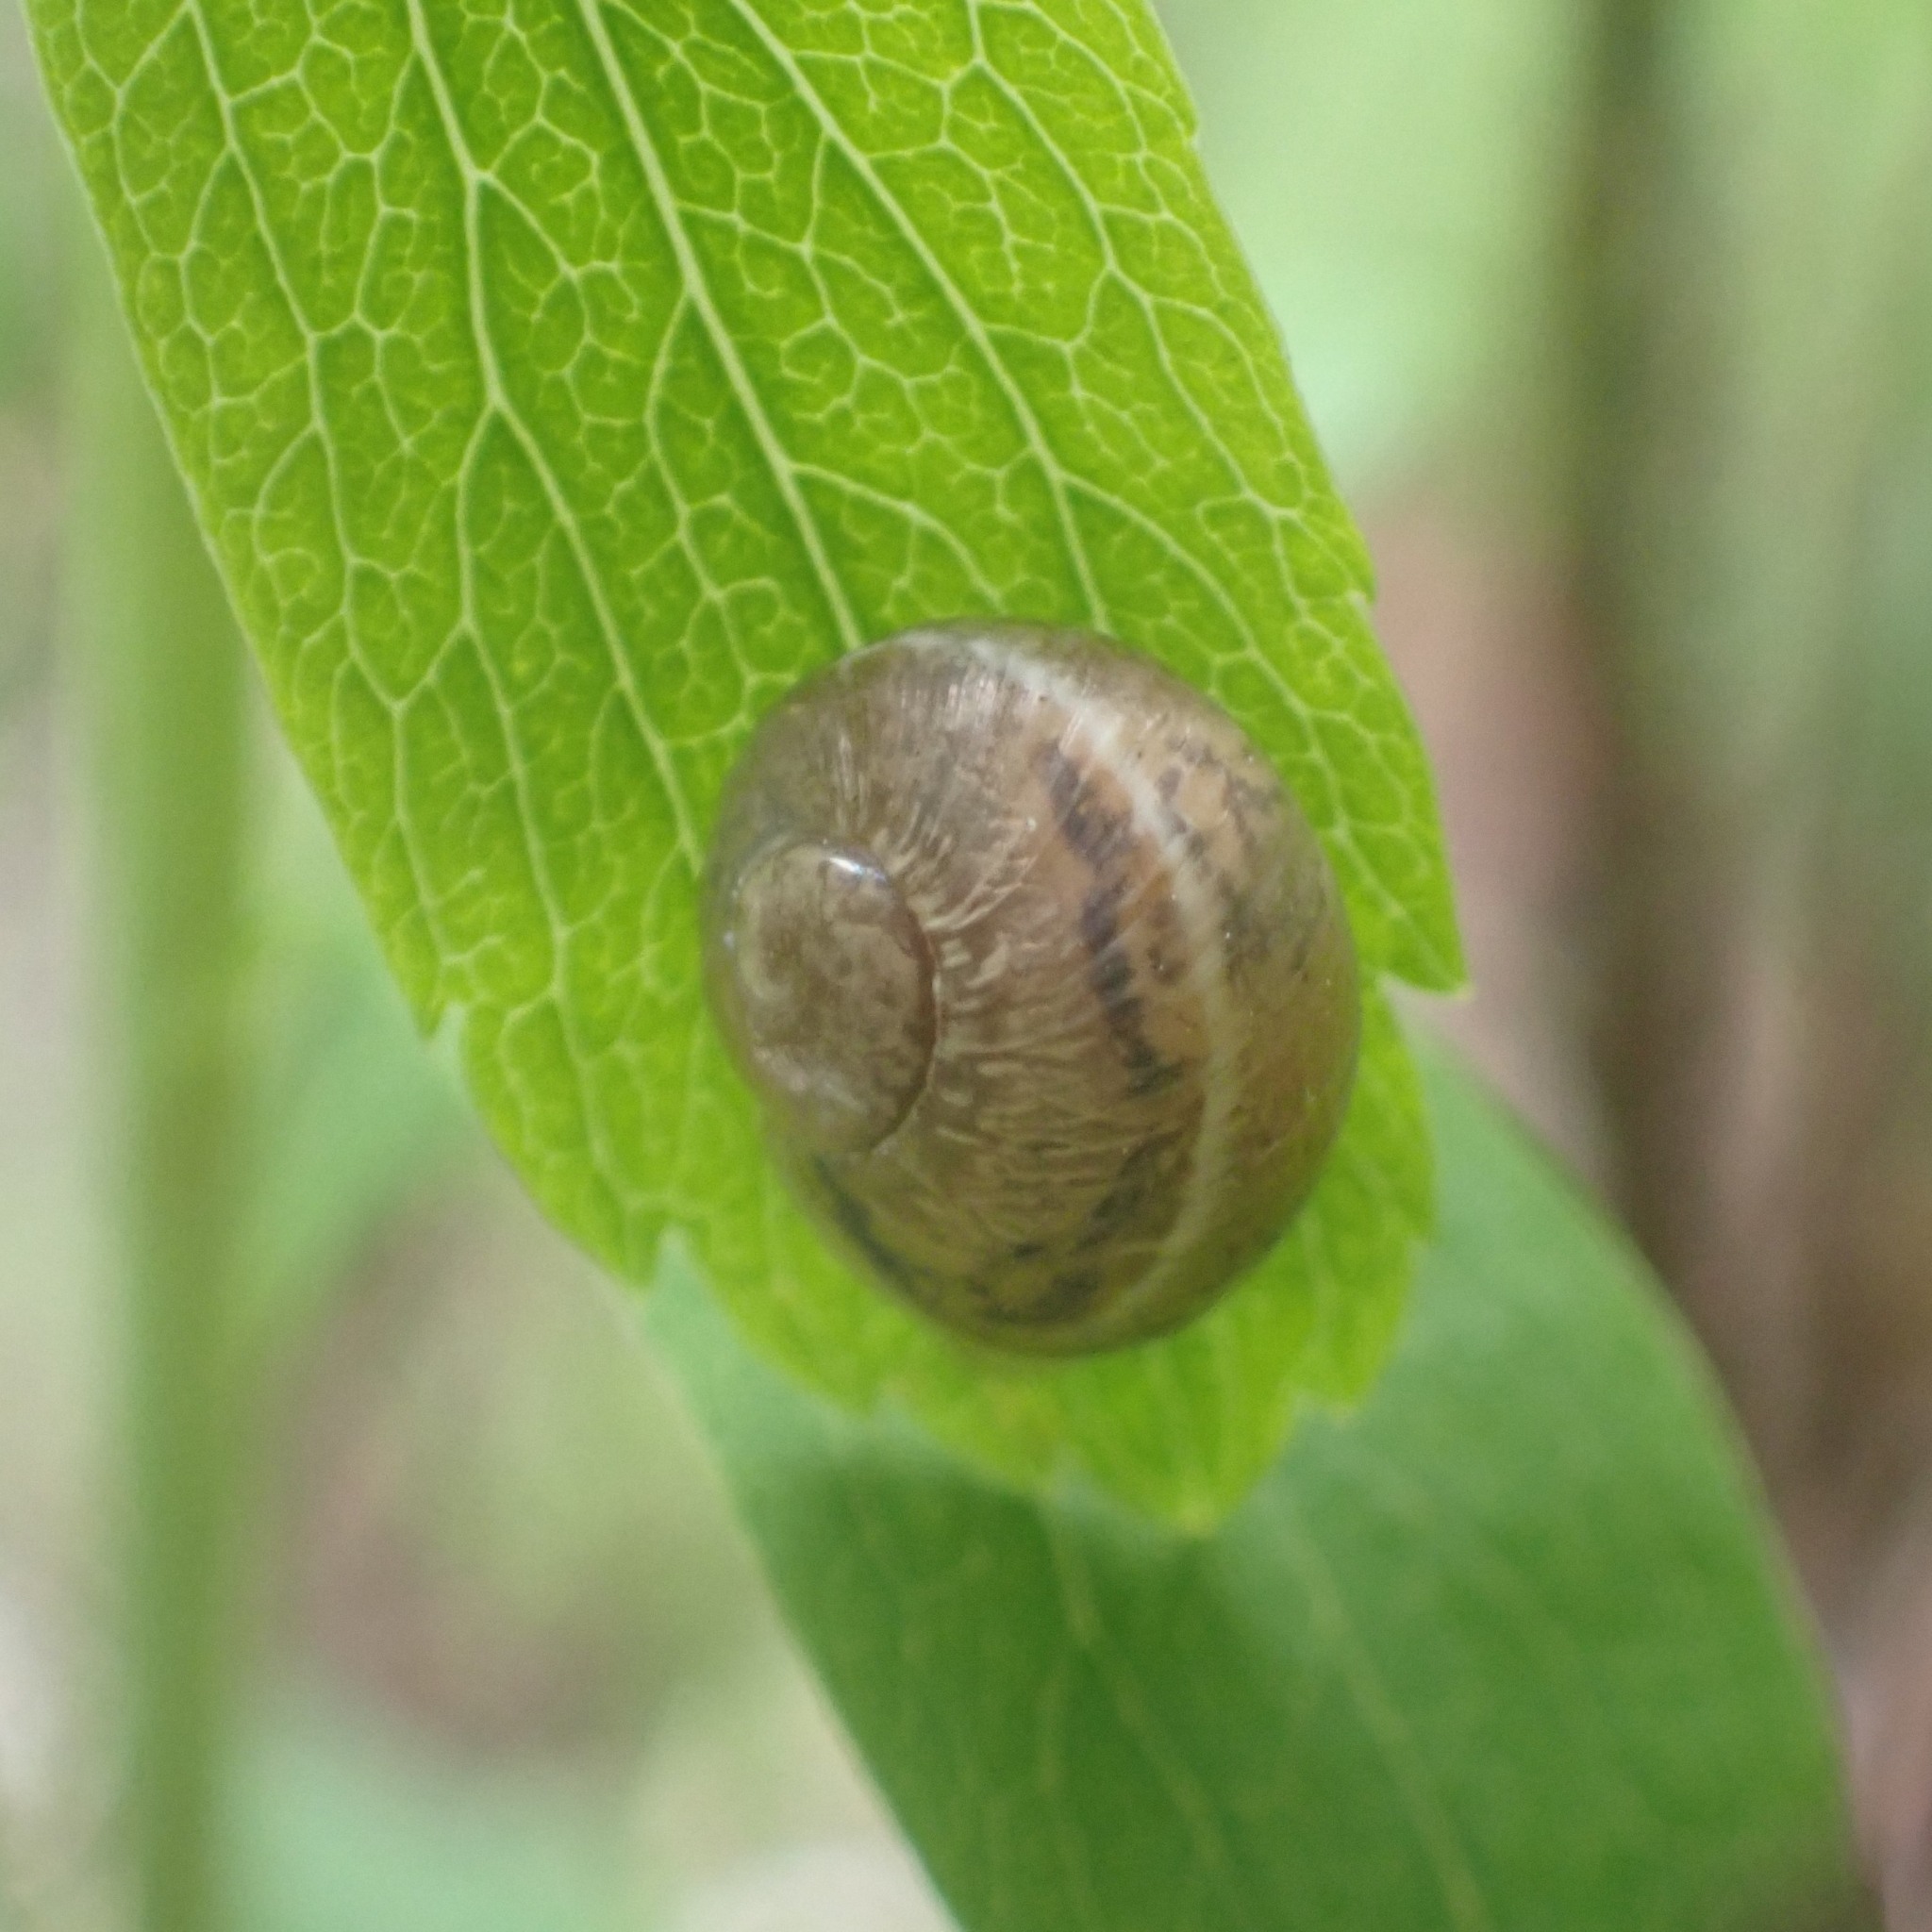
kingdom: Animalia
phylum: Mollusca
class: Gastropoda
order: Stylommatophora
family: Helicidae
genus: Cornu
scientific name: Cornu aspersum
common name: Brown garden snail
